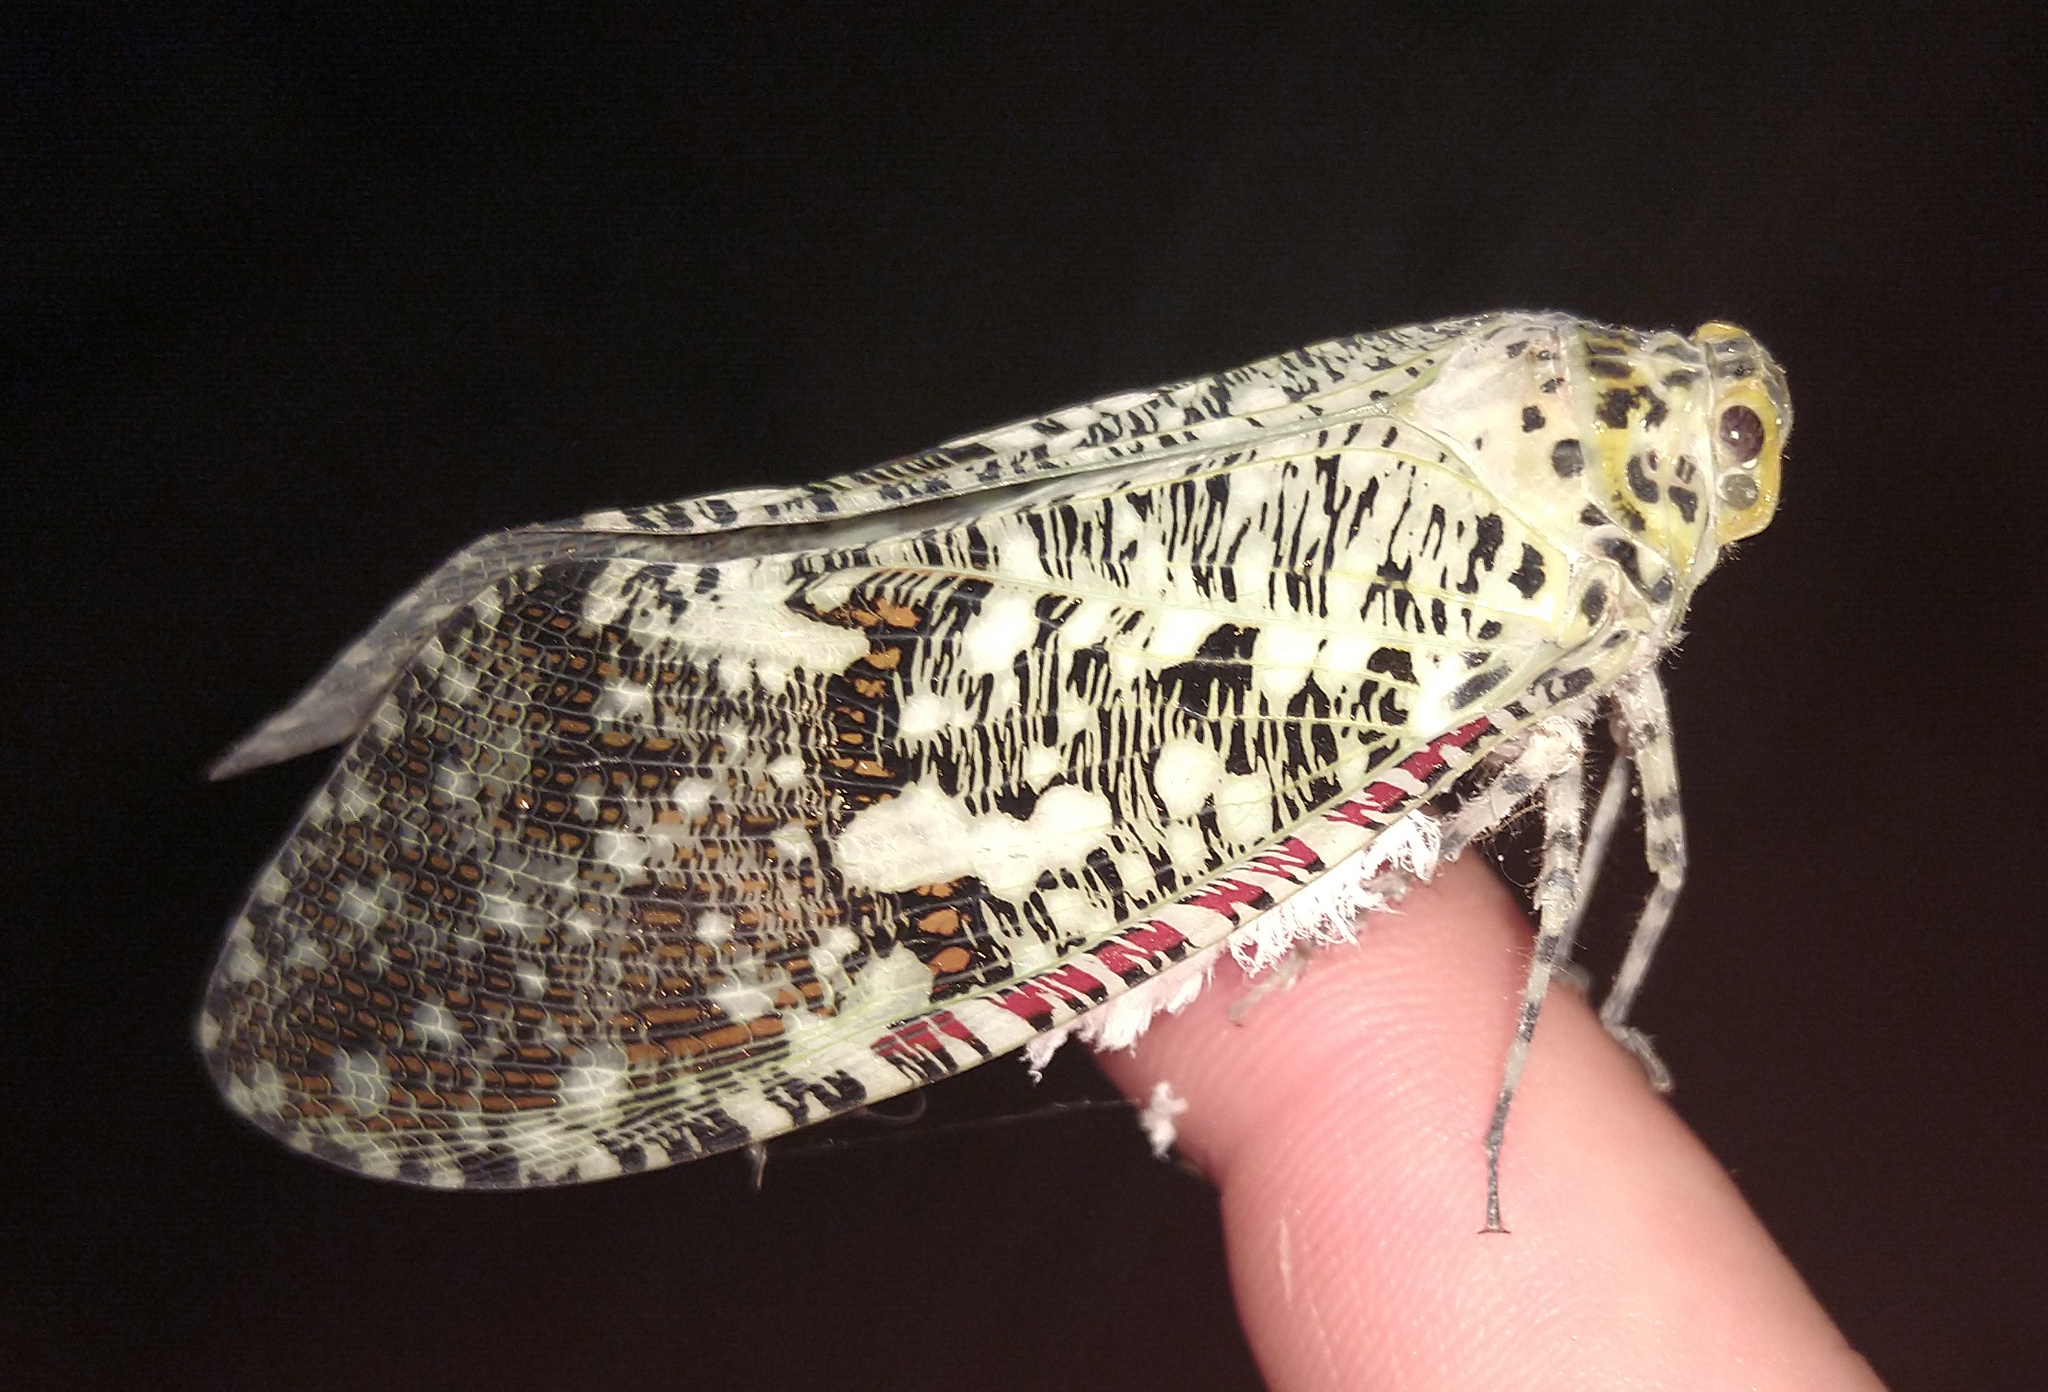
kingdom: Animalia
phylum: Arthropoda
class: Insecta
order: Hemiptera
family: Fulgoridae
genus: Phenax
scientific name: Phenax variegata
